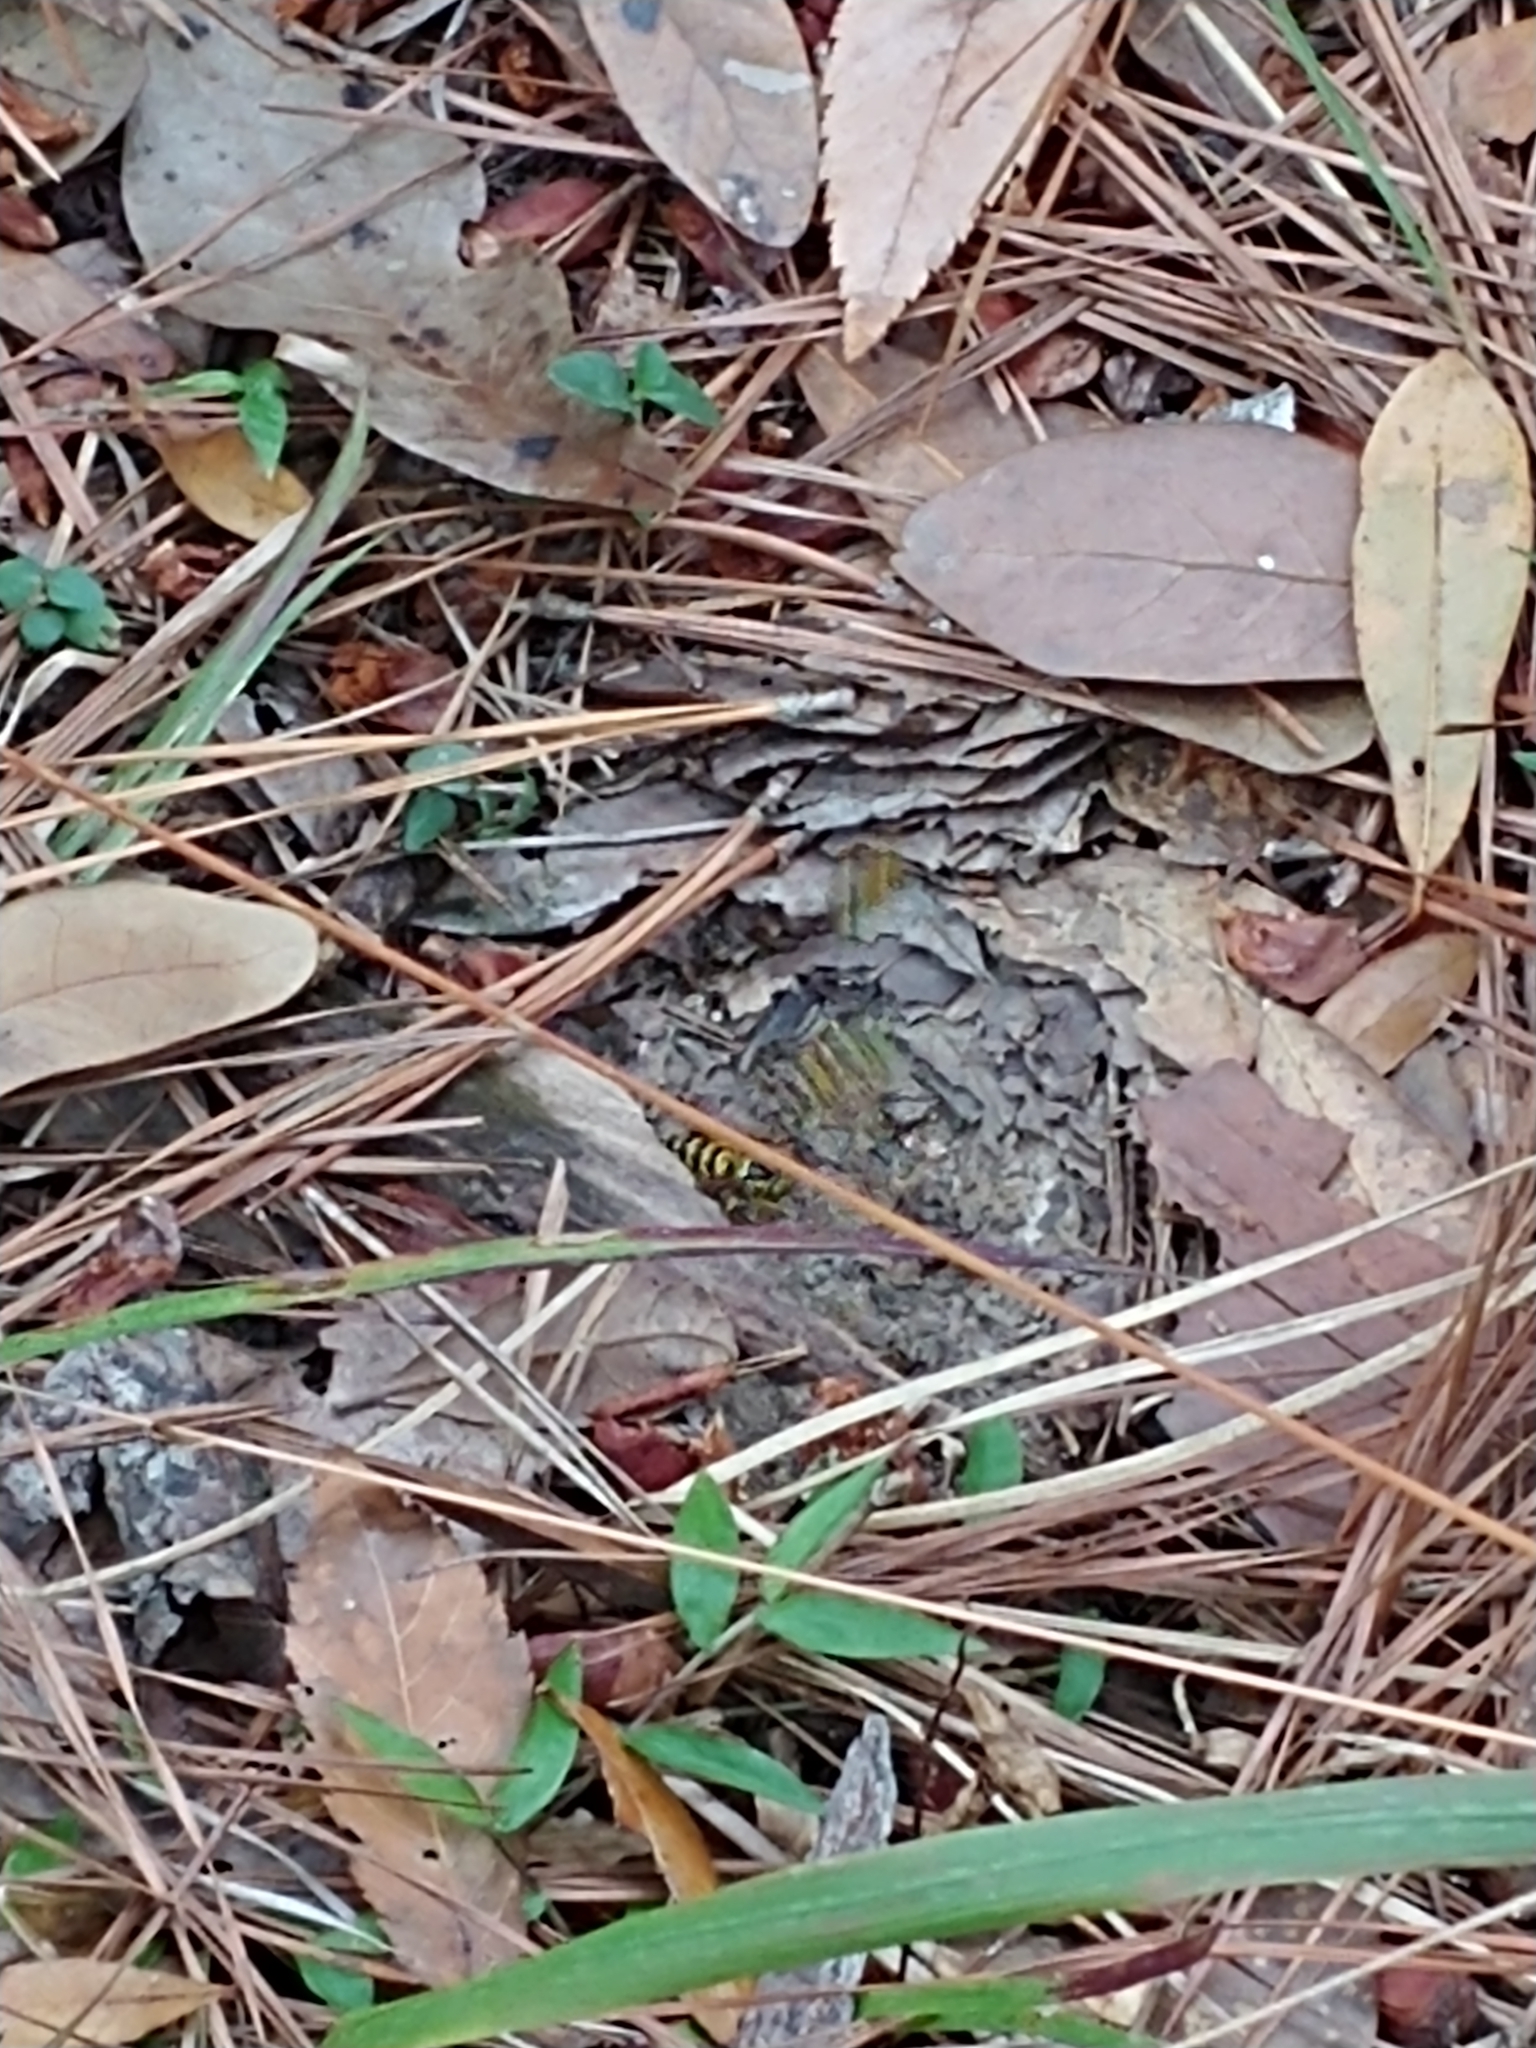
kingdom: Animalia
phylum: Arthropoda
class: Insecta
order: Hymenoptera
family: Vespidae
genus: Vespula
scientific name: Vespula maculifrons
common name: Eastern yellowjacket
